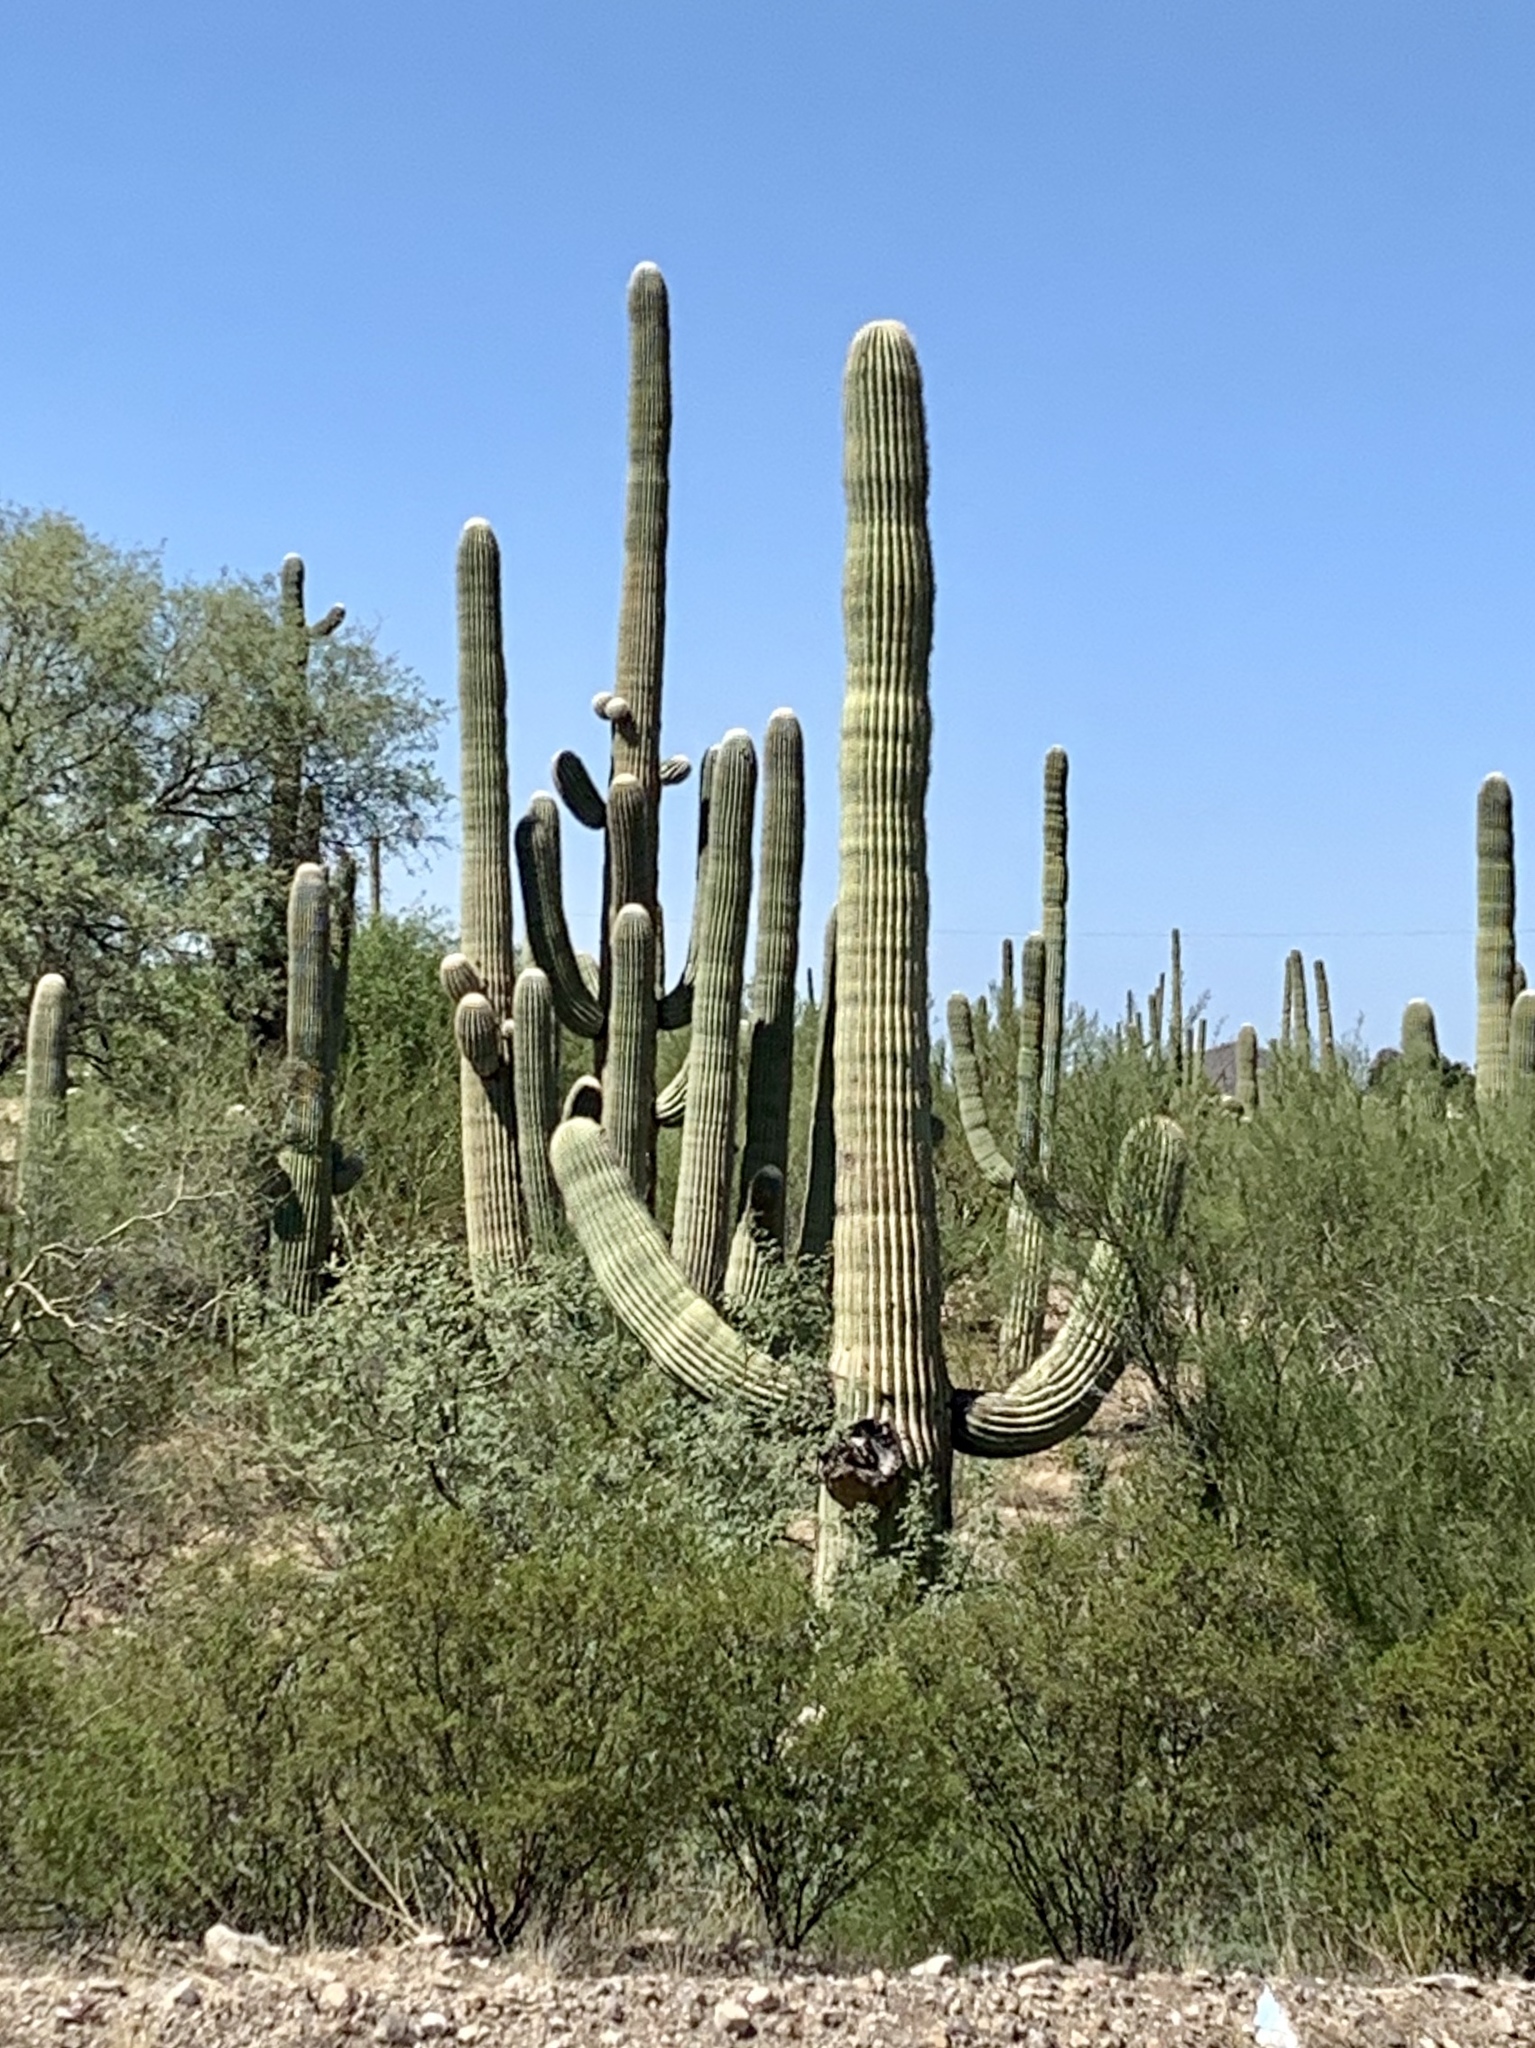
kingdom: Plantae
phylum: Tracheophyta
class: Magnoliopsida
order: Caryophyllales
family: Cactaceae
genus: Carnegiea
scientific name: Carnegiea gigantea
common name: Saguaro
